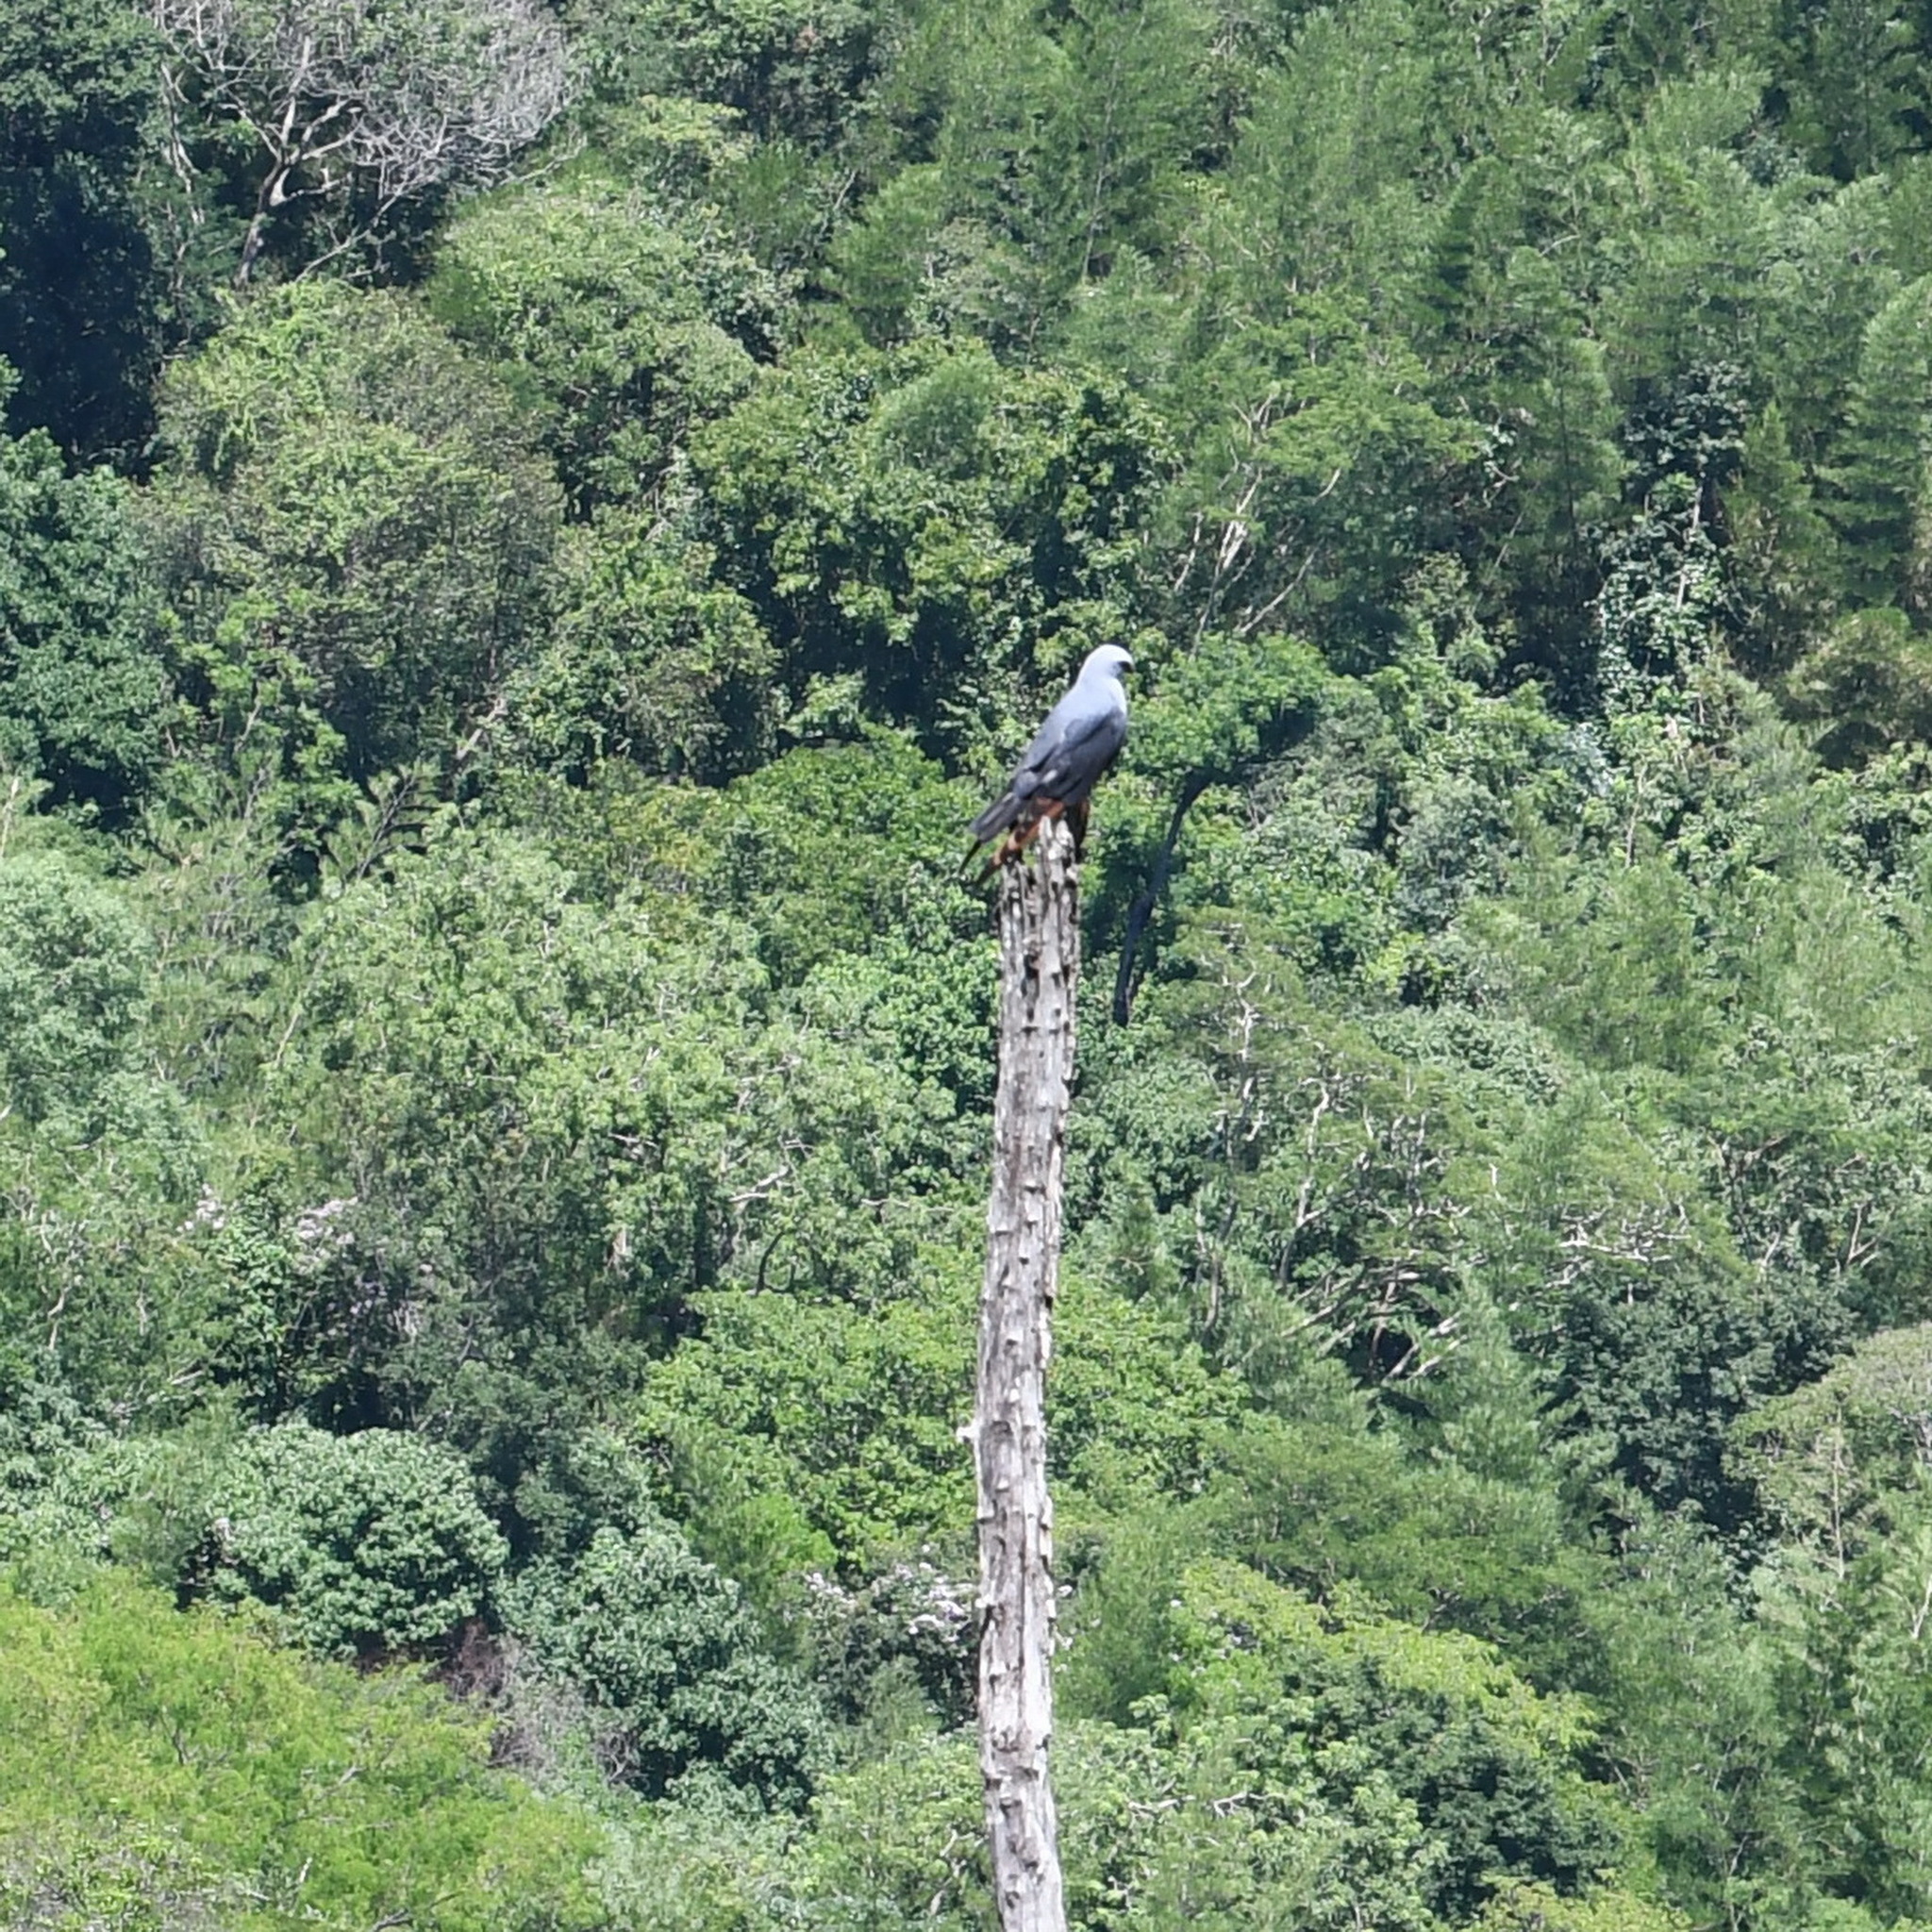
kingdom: Animalia
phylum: Chordata
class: Aves
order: Accipitriformes
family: Accipitridae
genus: Ictinia
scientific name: Ictinia plumbea
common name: Plumbeous kite
